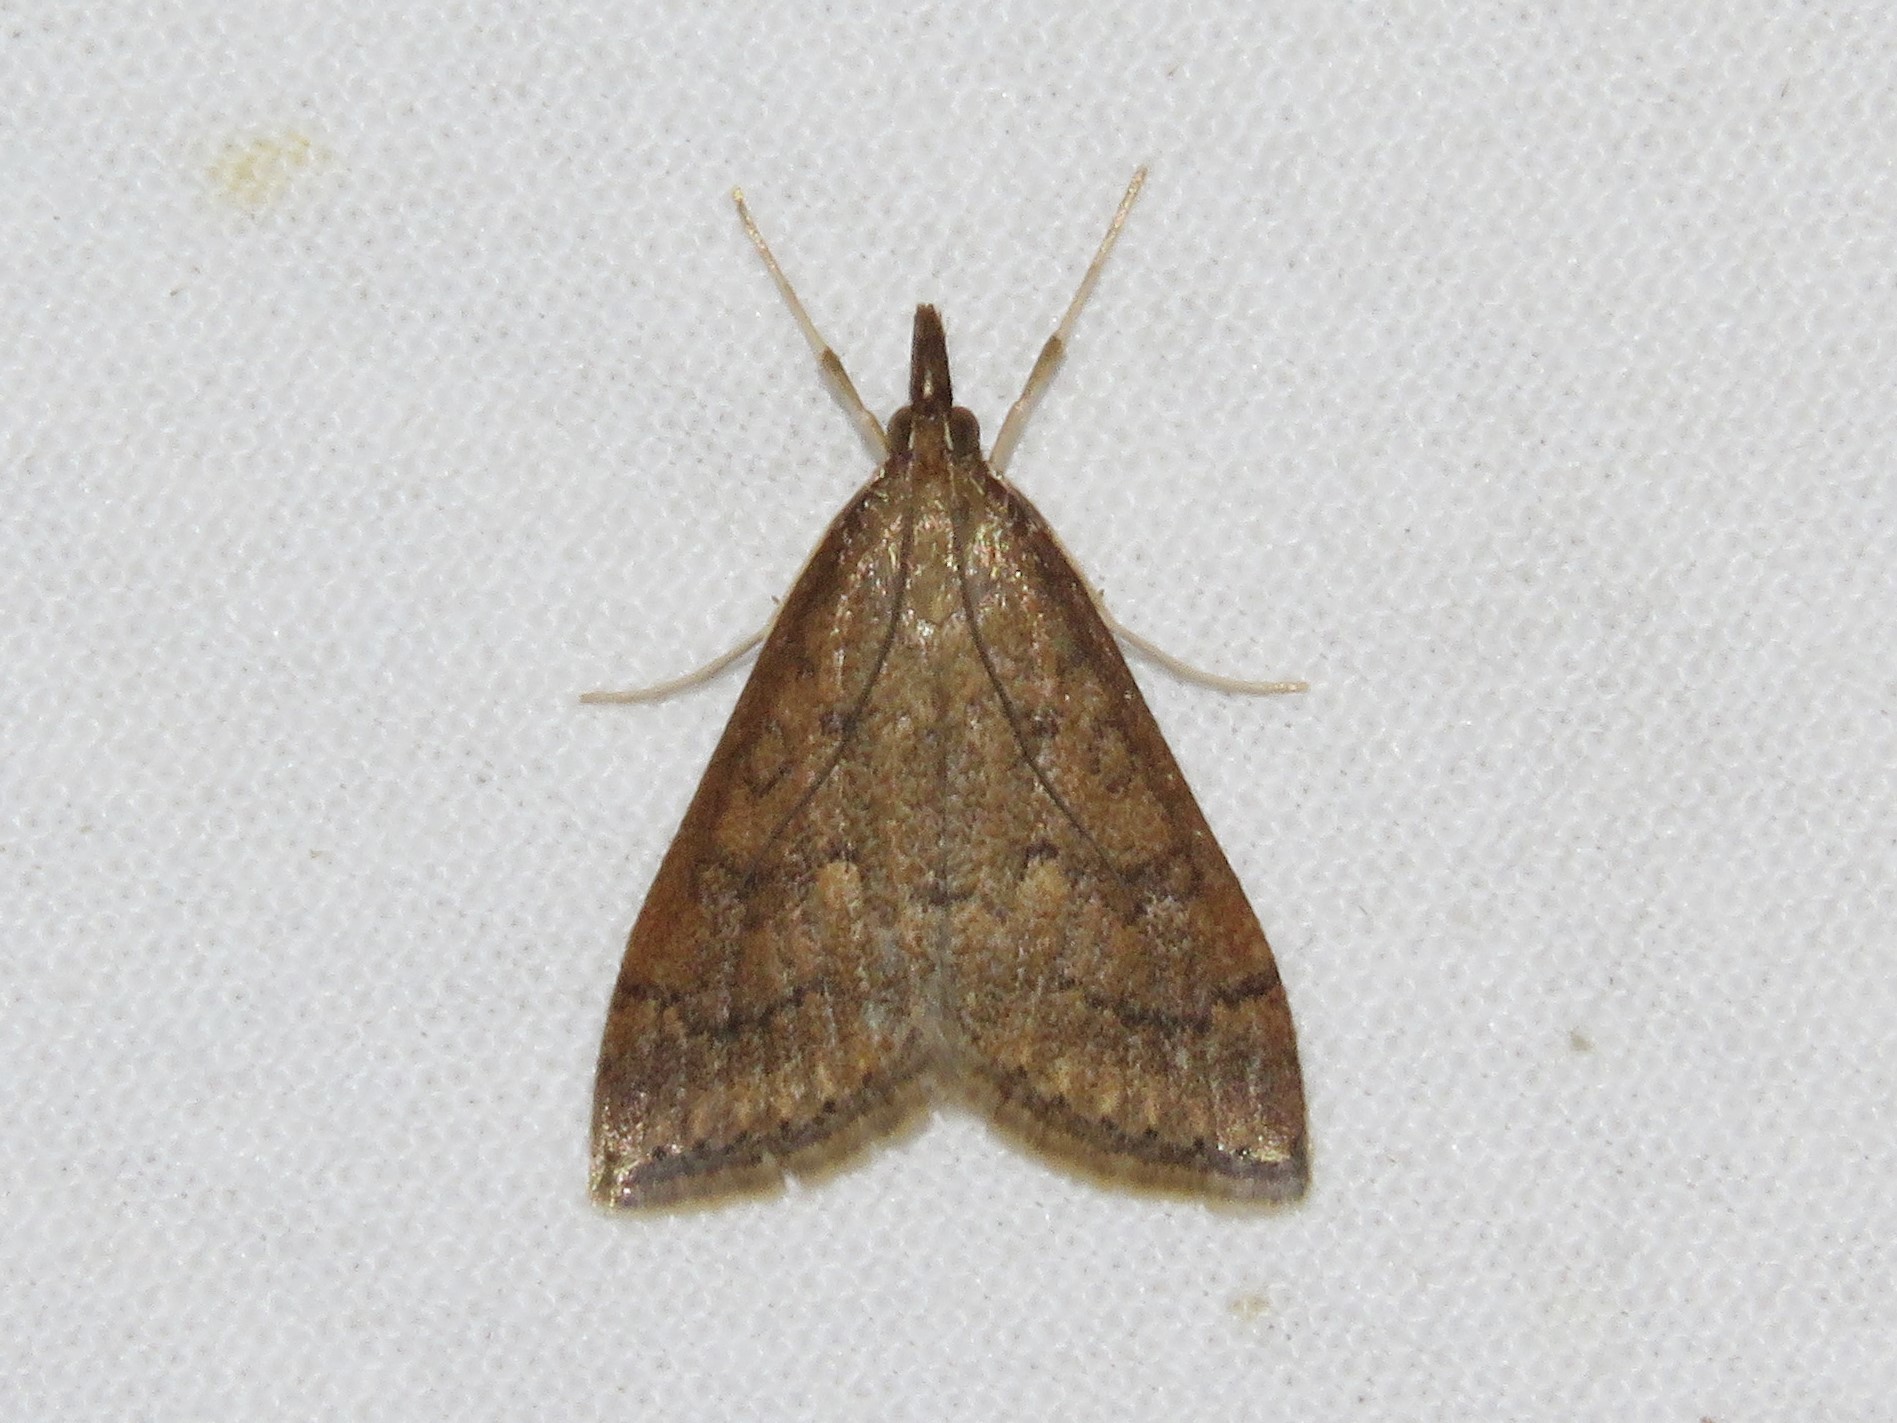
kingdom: Animalia
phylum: Arthropoda
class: Insecta
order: Lepidoptera
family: Crambidae
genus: Udea
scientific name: Udea rubigalis
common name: Celery leaftier moth
